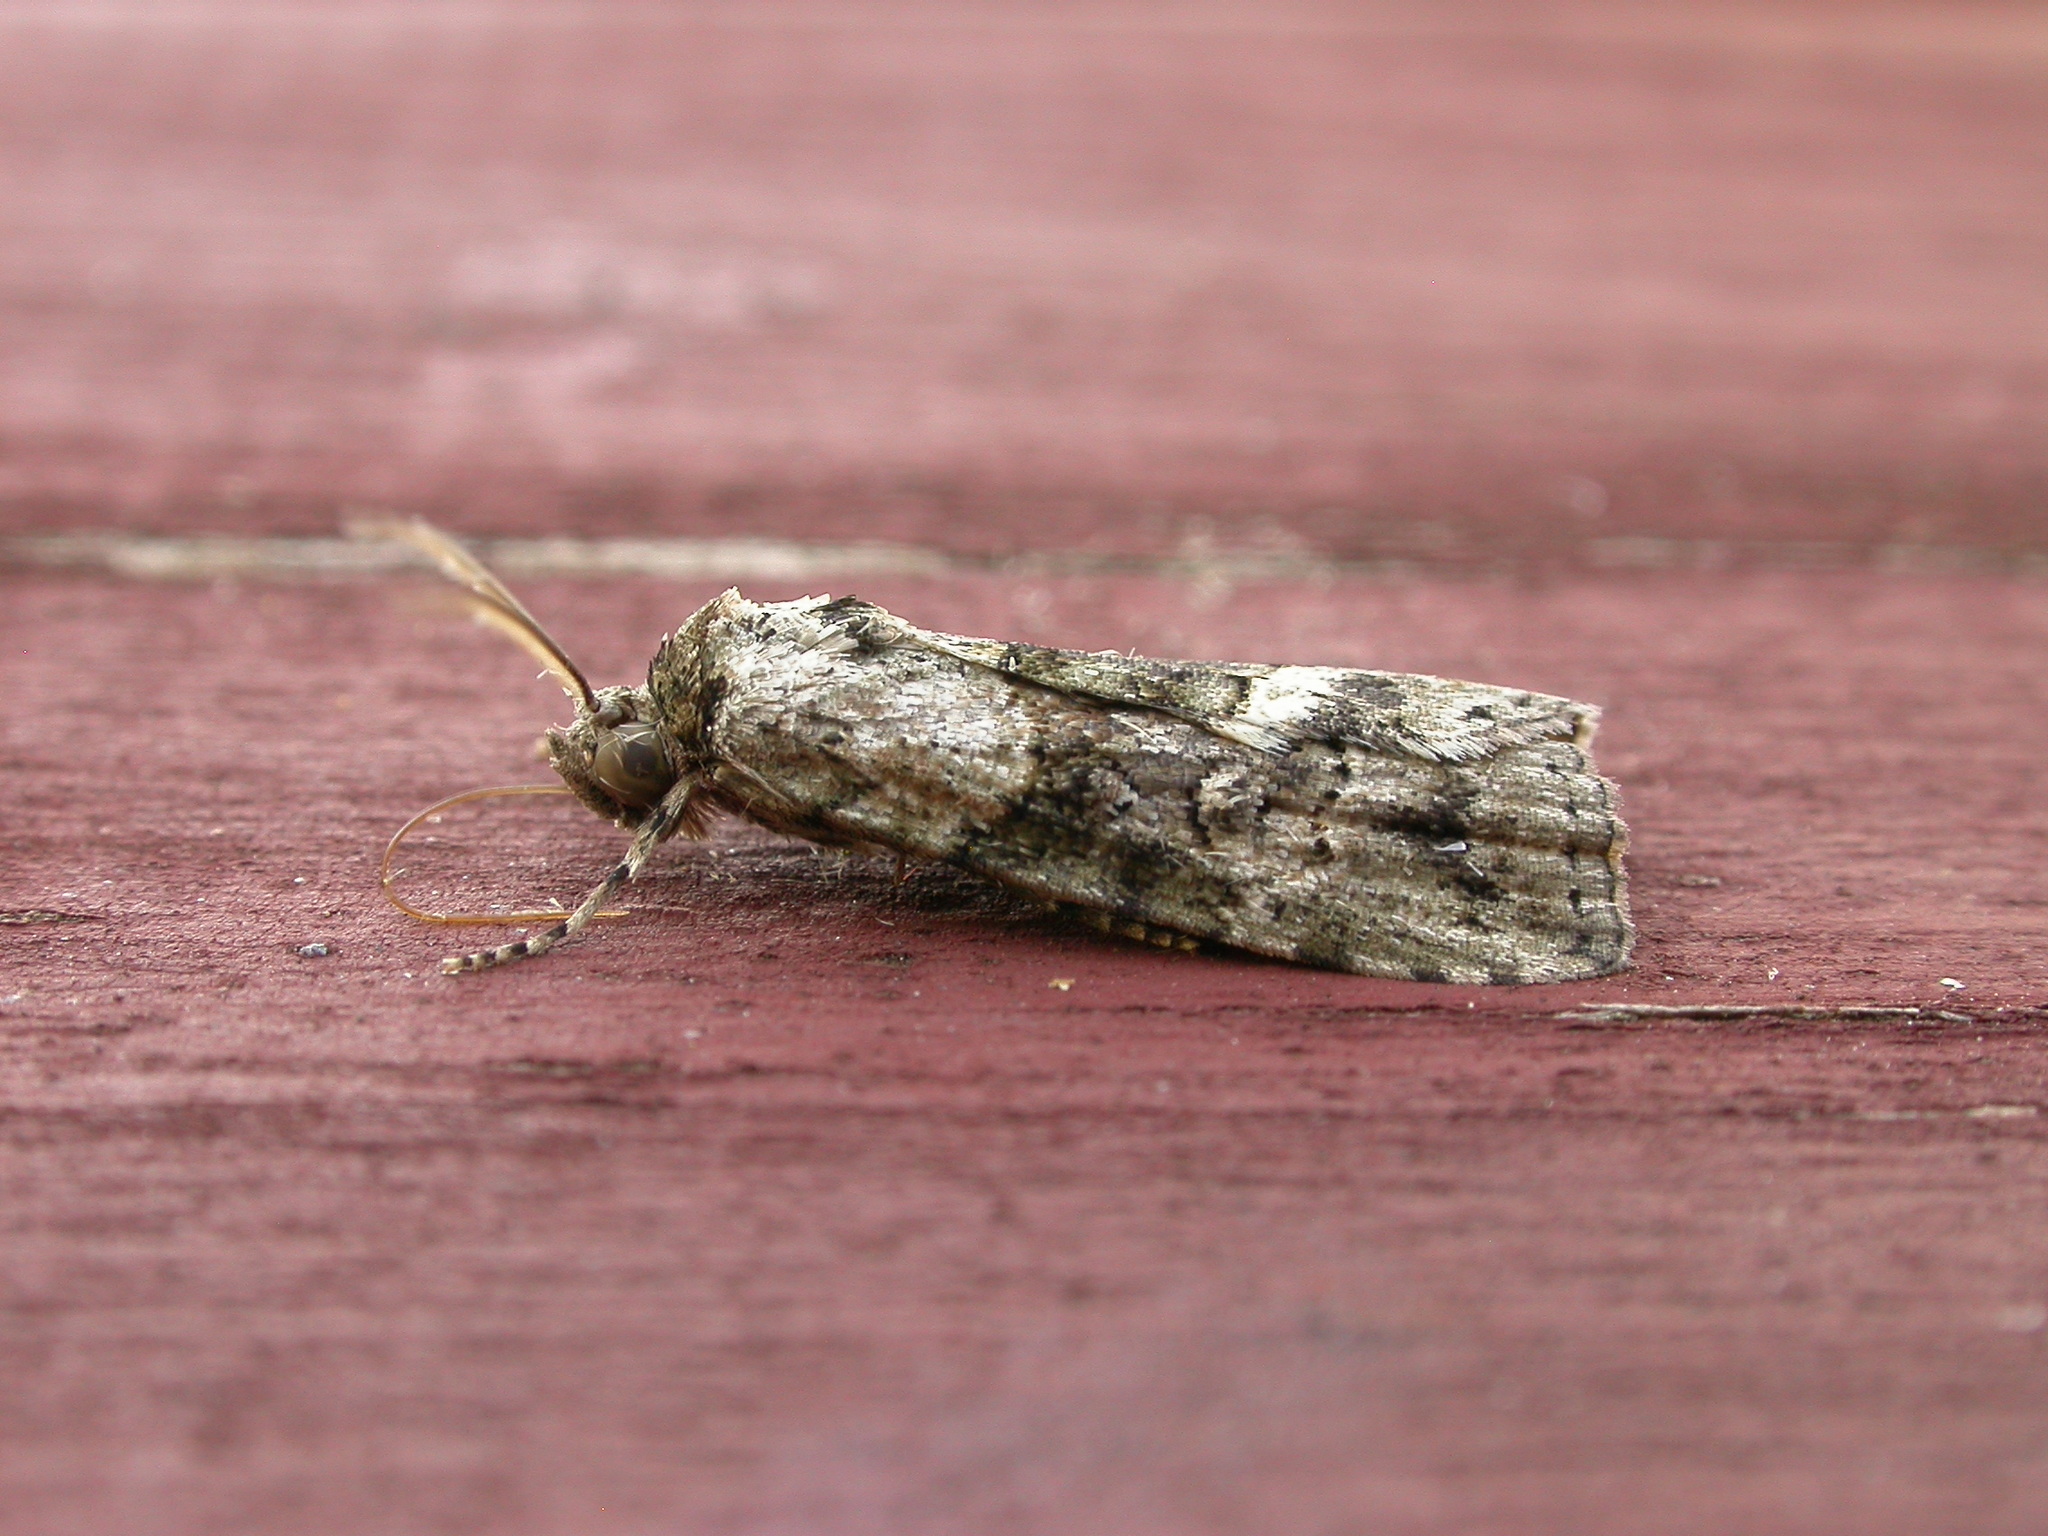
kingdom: Animalia
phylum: Arthropoda
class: Insecta
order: Lepidoptera
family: Nolidae
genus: Calathusa
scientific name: Calathusa cyrtosticha
